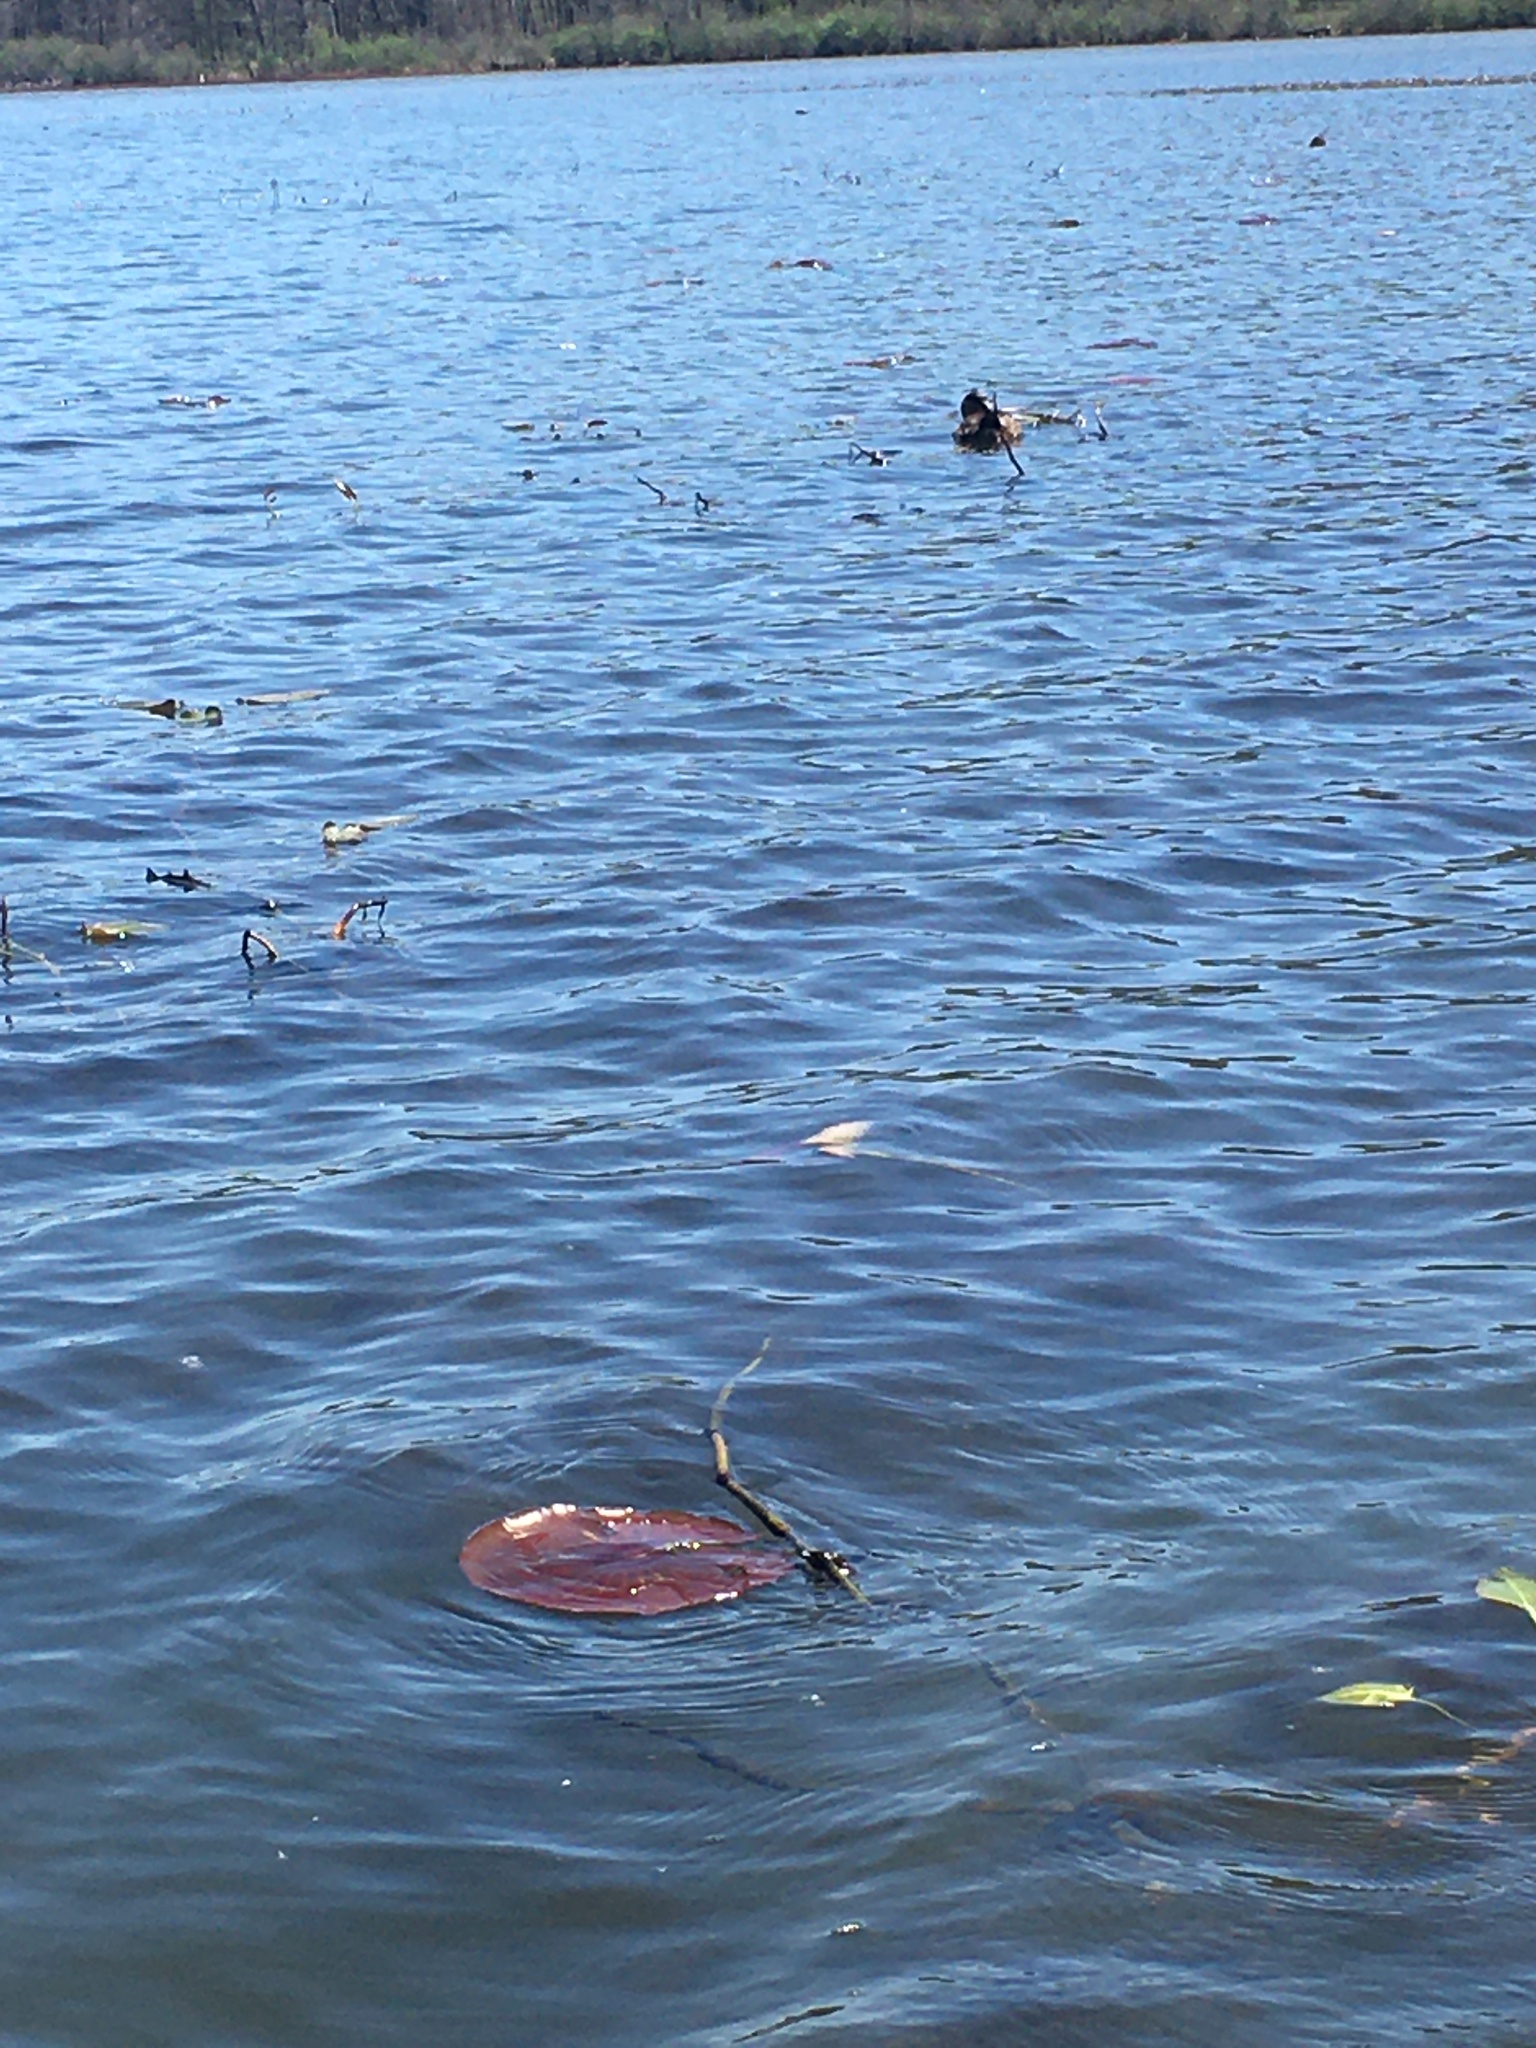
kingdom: Animalia
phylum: Chordata
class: Aves
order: Anseriformes
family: Anatidae
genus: Oxyura
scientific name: Oxyura jamaicensis
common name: Ruddy duck
